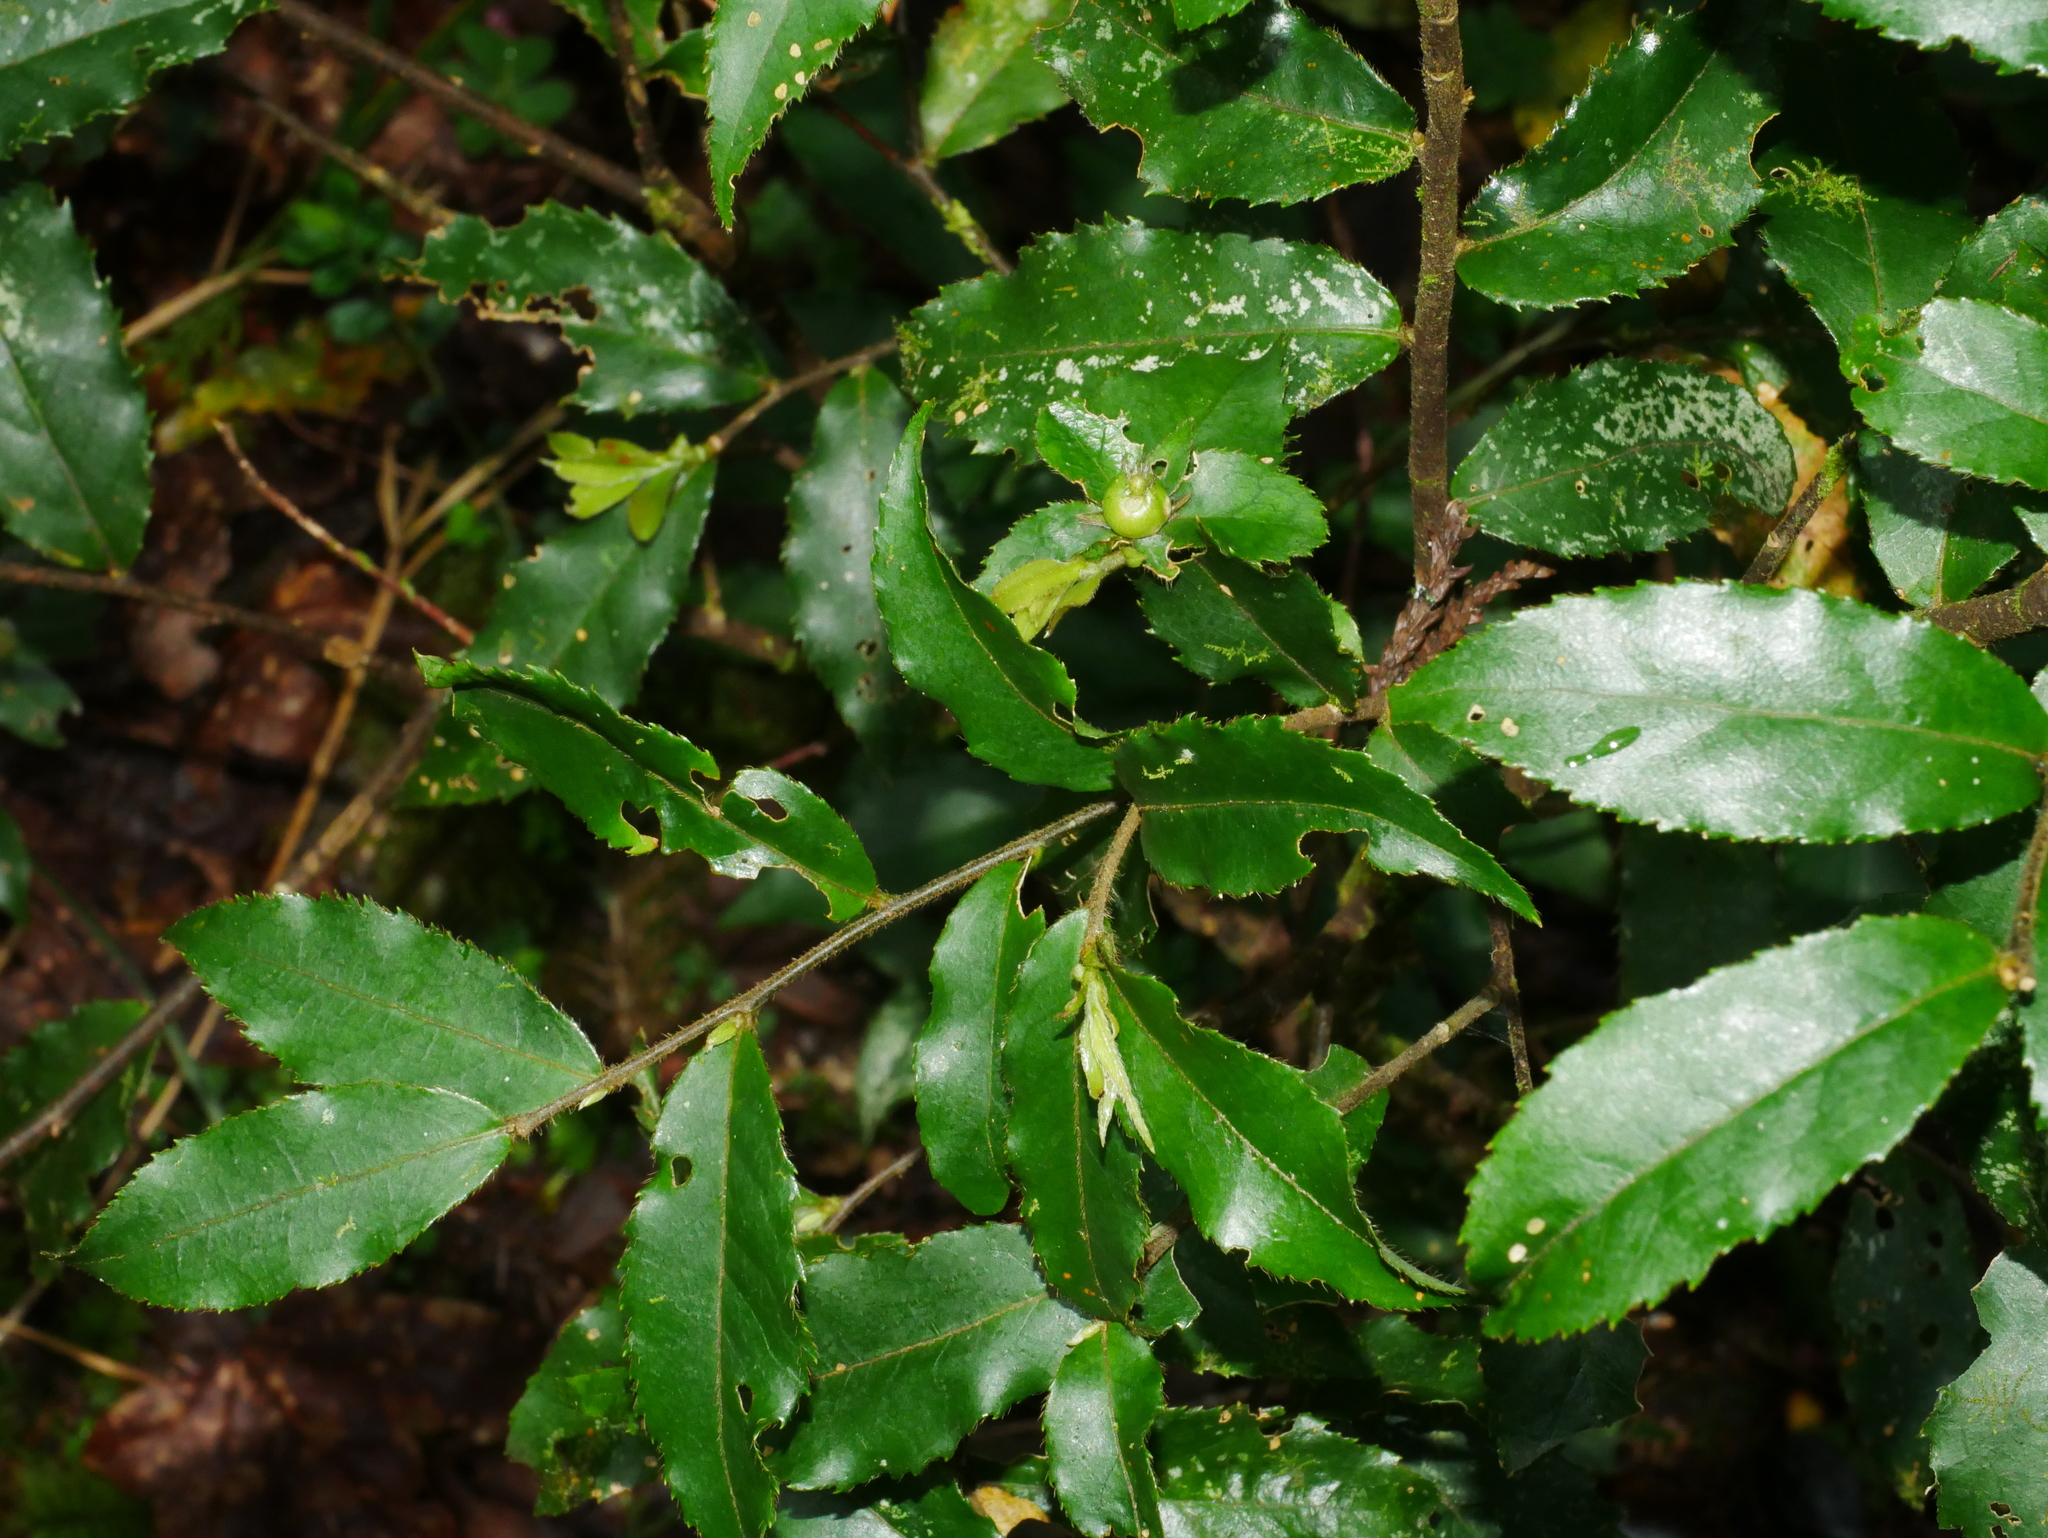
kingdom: Plantae
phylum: Tracheophyta
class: Magnoliopsida
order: Ericales
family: Symplocaceae
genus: Symplocos
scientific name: Symplocos lancifolia
